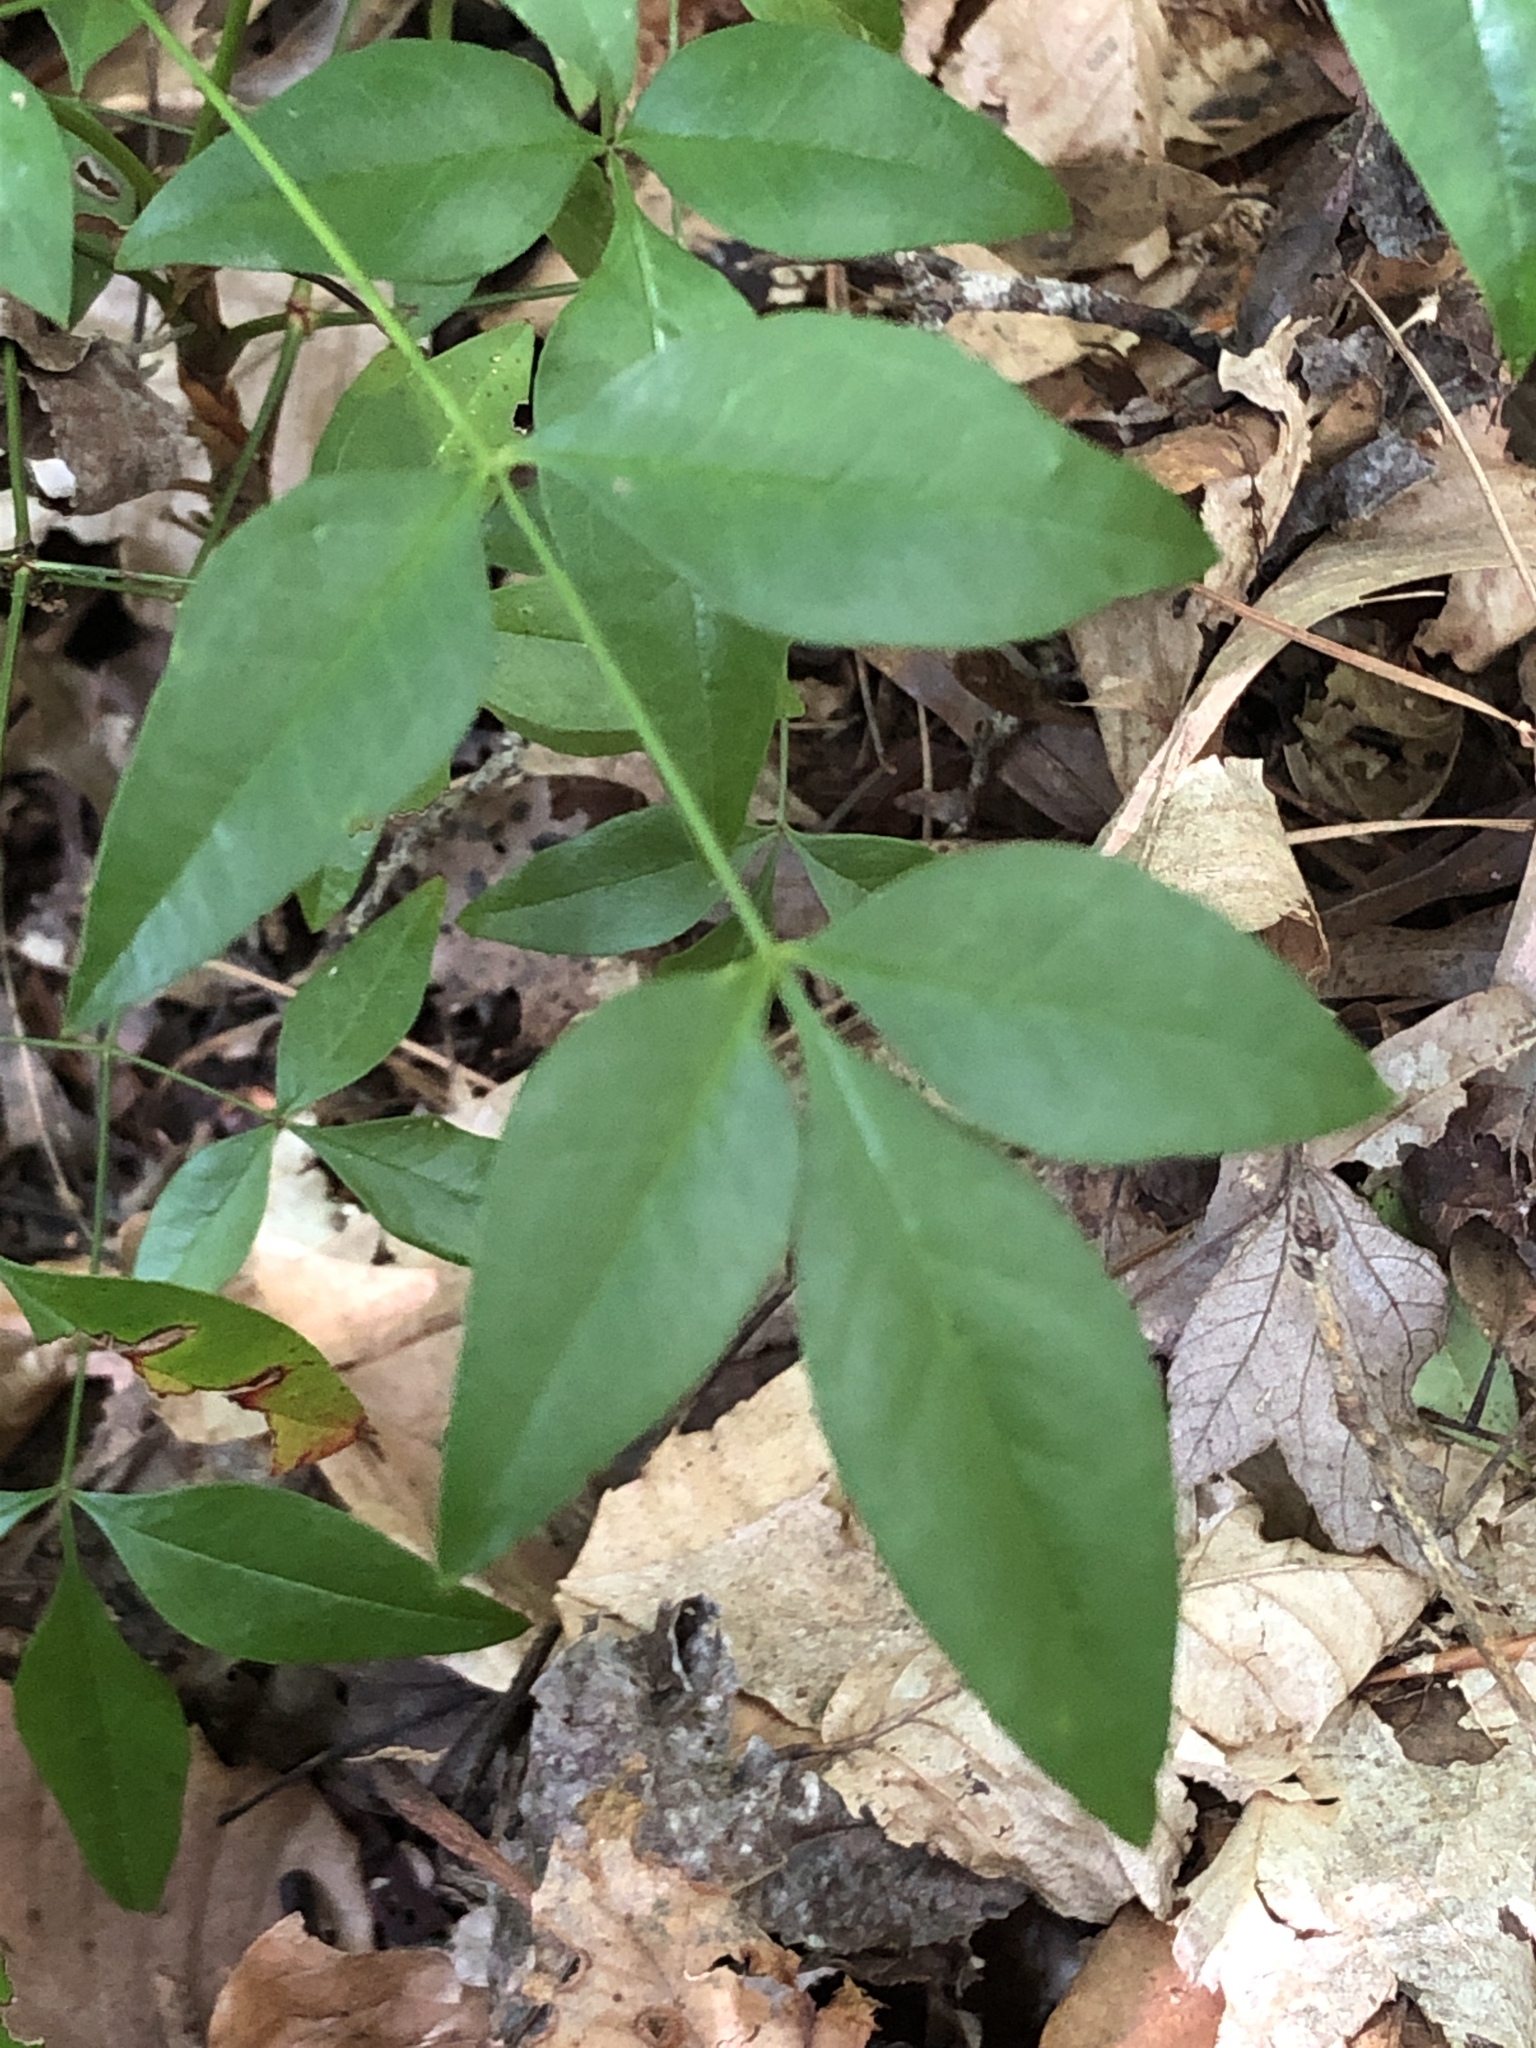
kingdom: Plantae
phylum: Tracheophyta
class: Magnoliopsida
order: Ranunculales
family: Berberidaceae
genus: Nandina
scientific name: Nandina domestica
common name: Sacred bamboo
